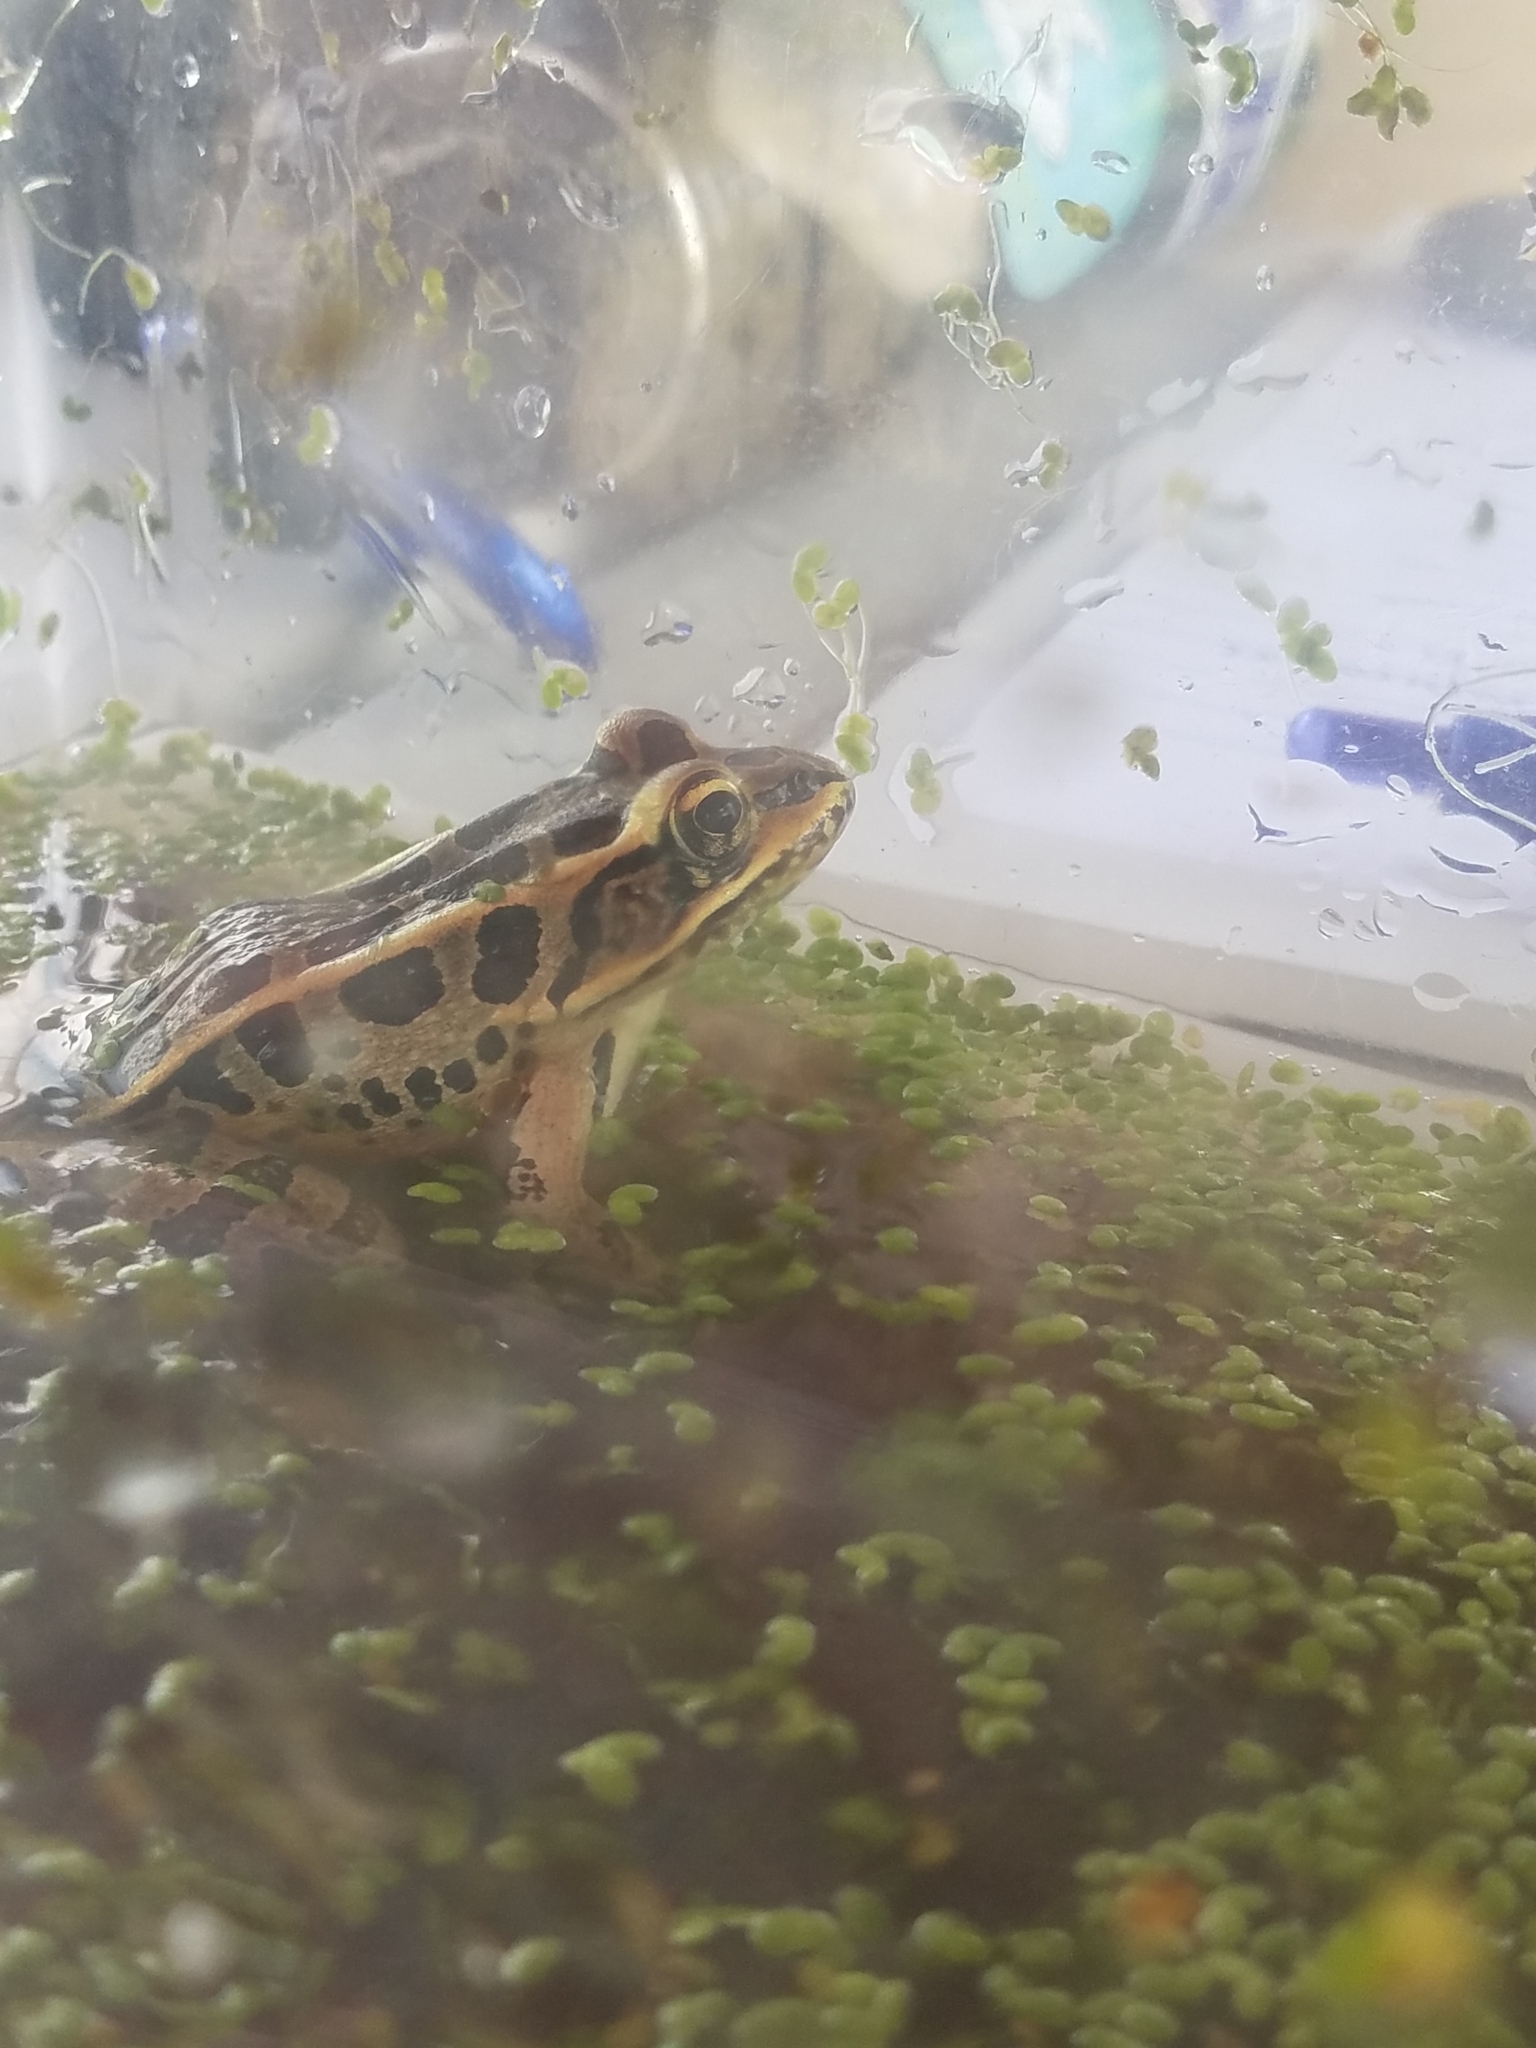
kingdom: Animalia
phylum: Chordata
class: Amphibia
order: Anura
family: Ranidae
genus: Lithobates
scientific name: Lithobates palustris
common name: Pickerel frog
